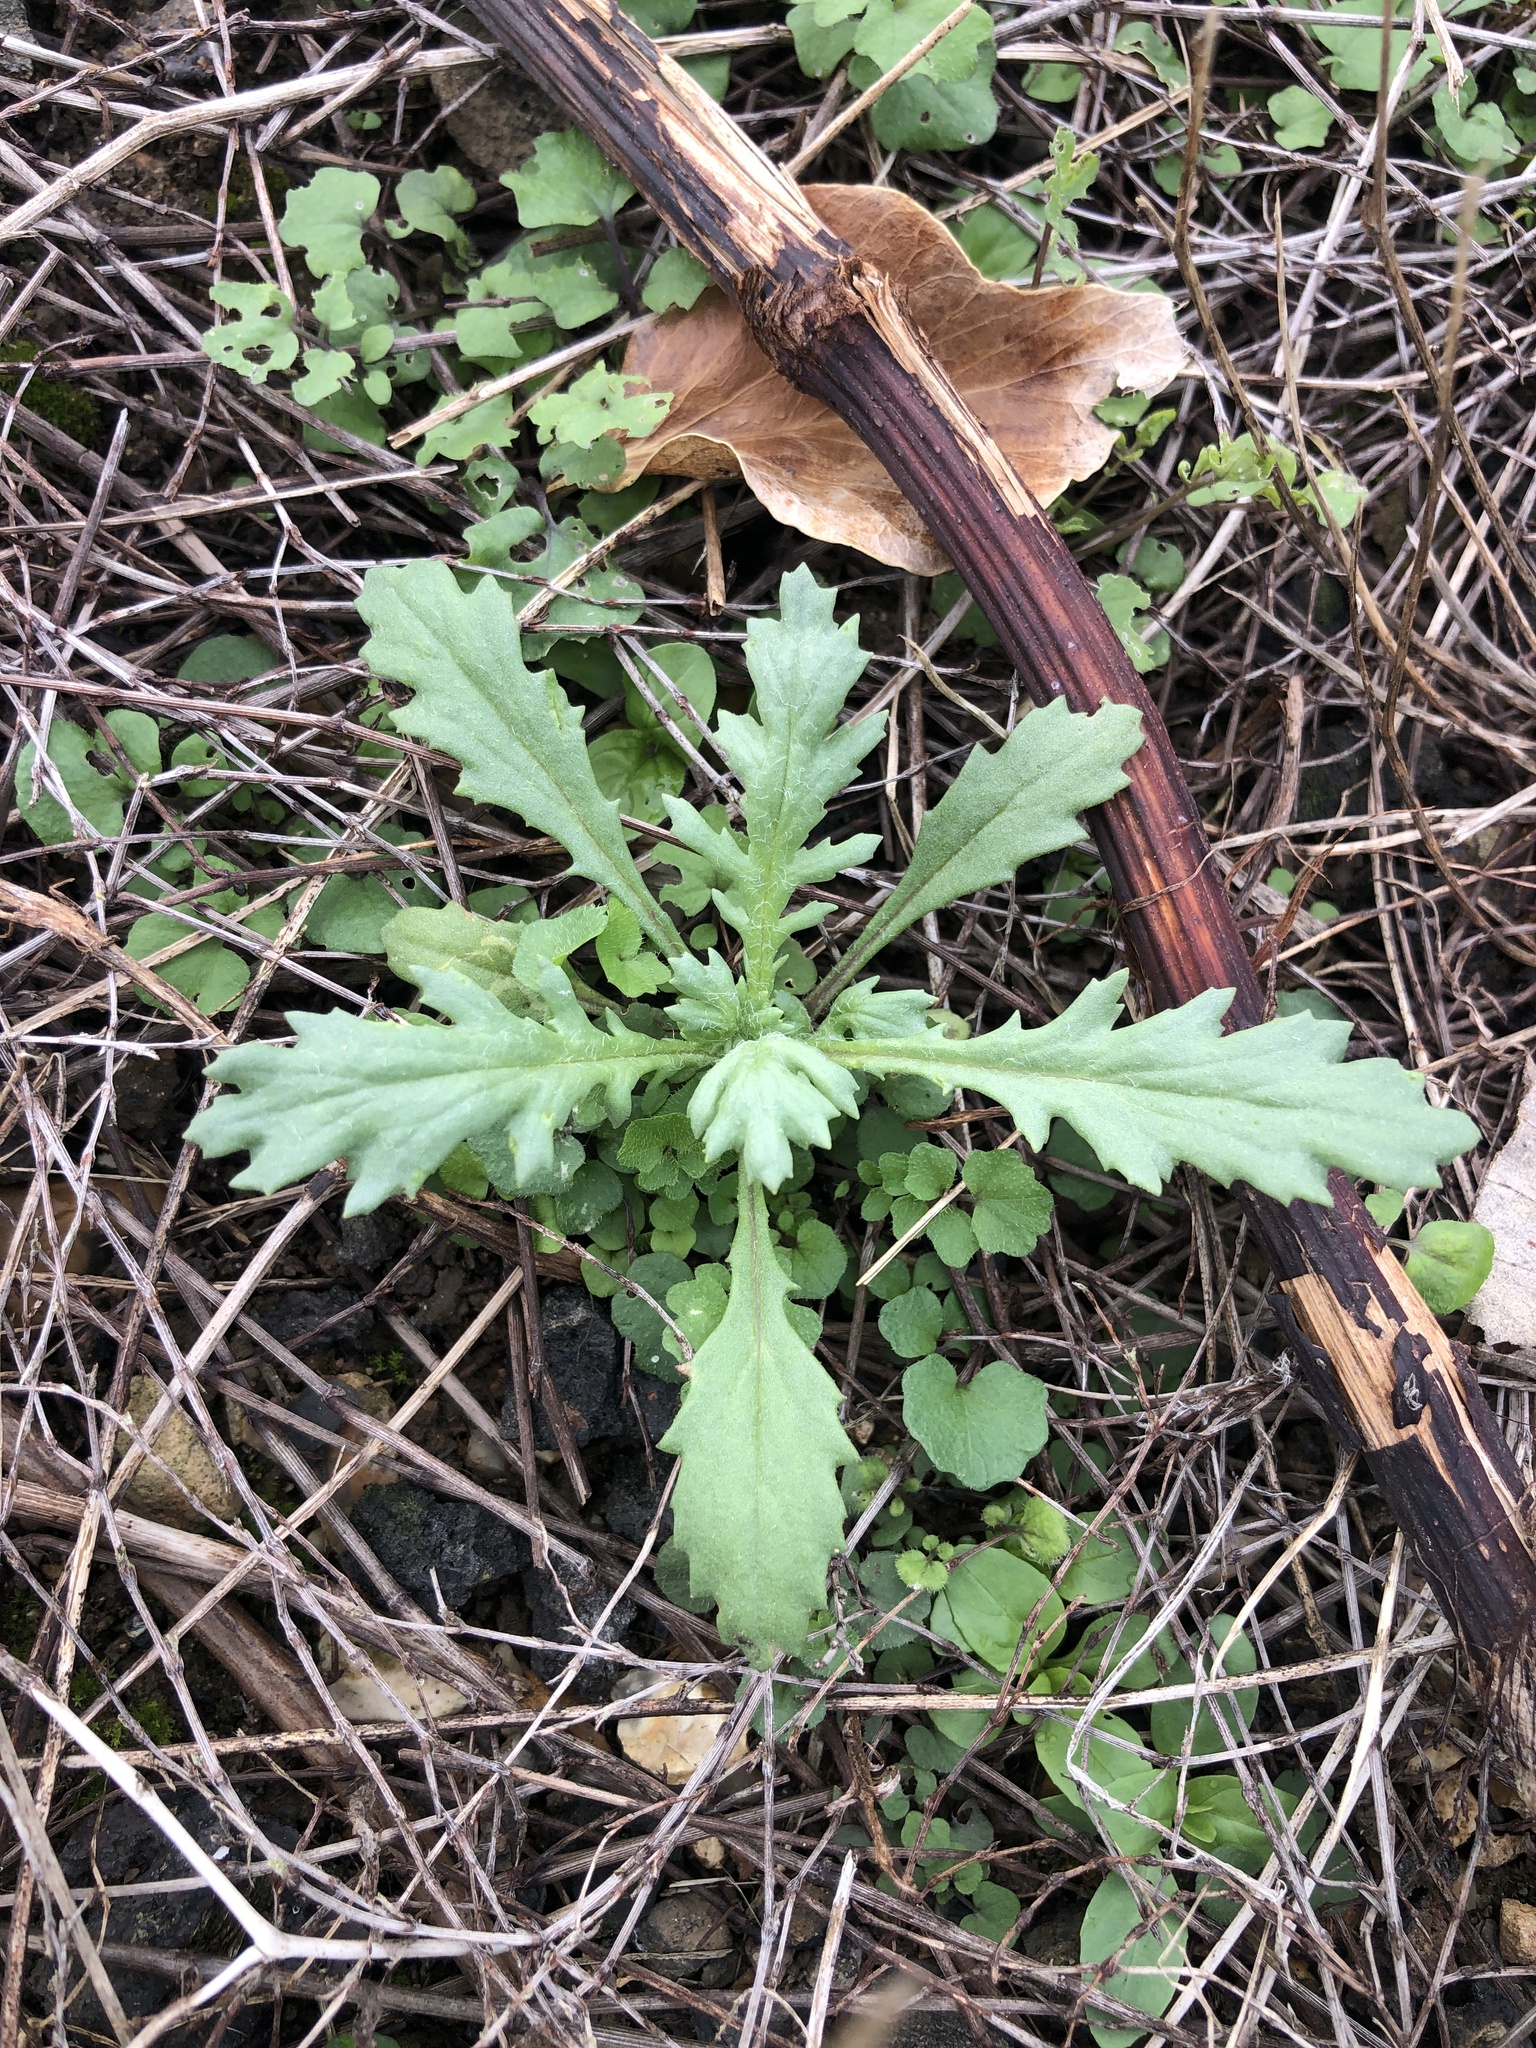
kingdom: Plantae
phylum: Tracheophyta
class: Magnoliopsida
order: Asterales
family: Asteraceae
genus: Senecio
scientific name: Senecio vulgaris
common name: Old-man-in-the-spring
